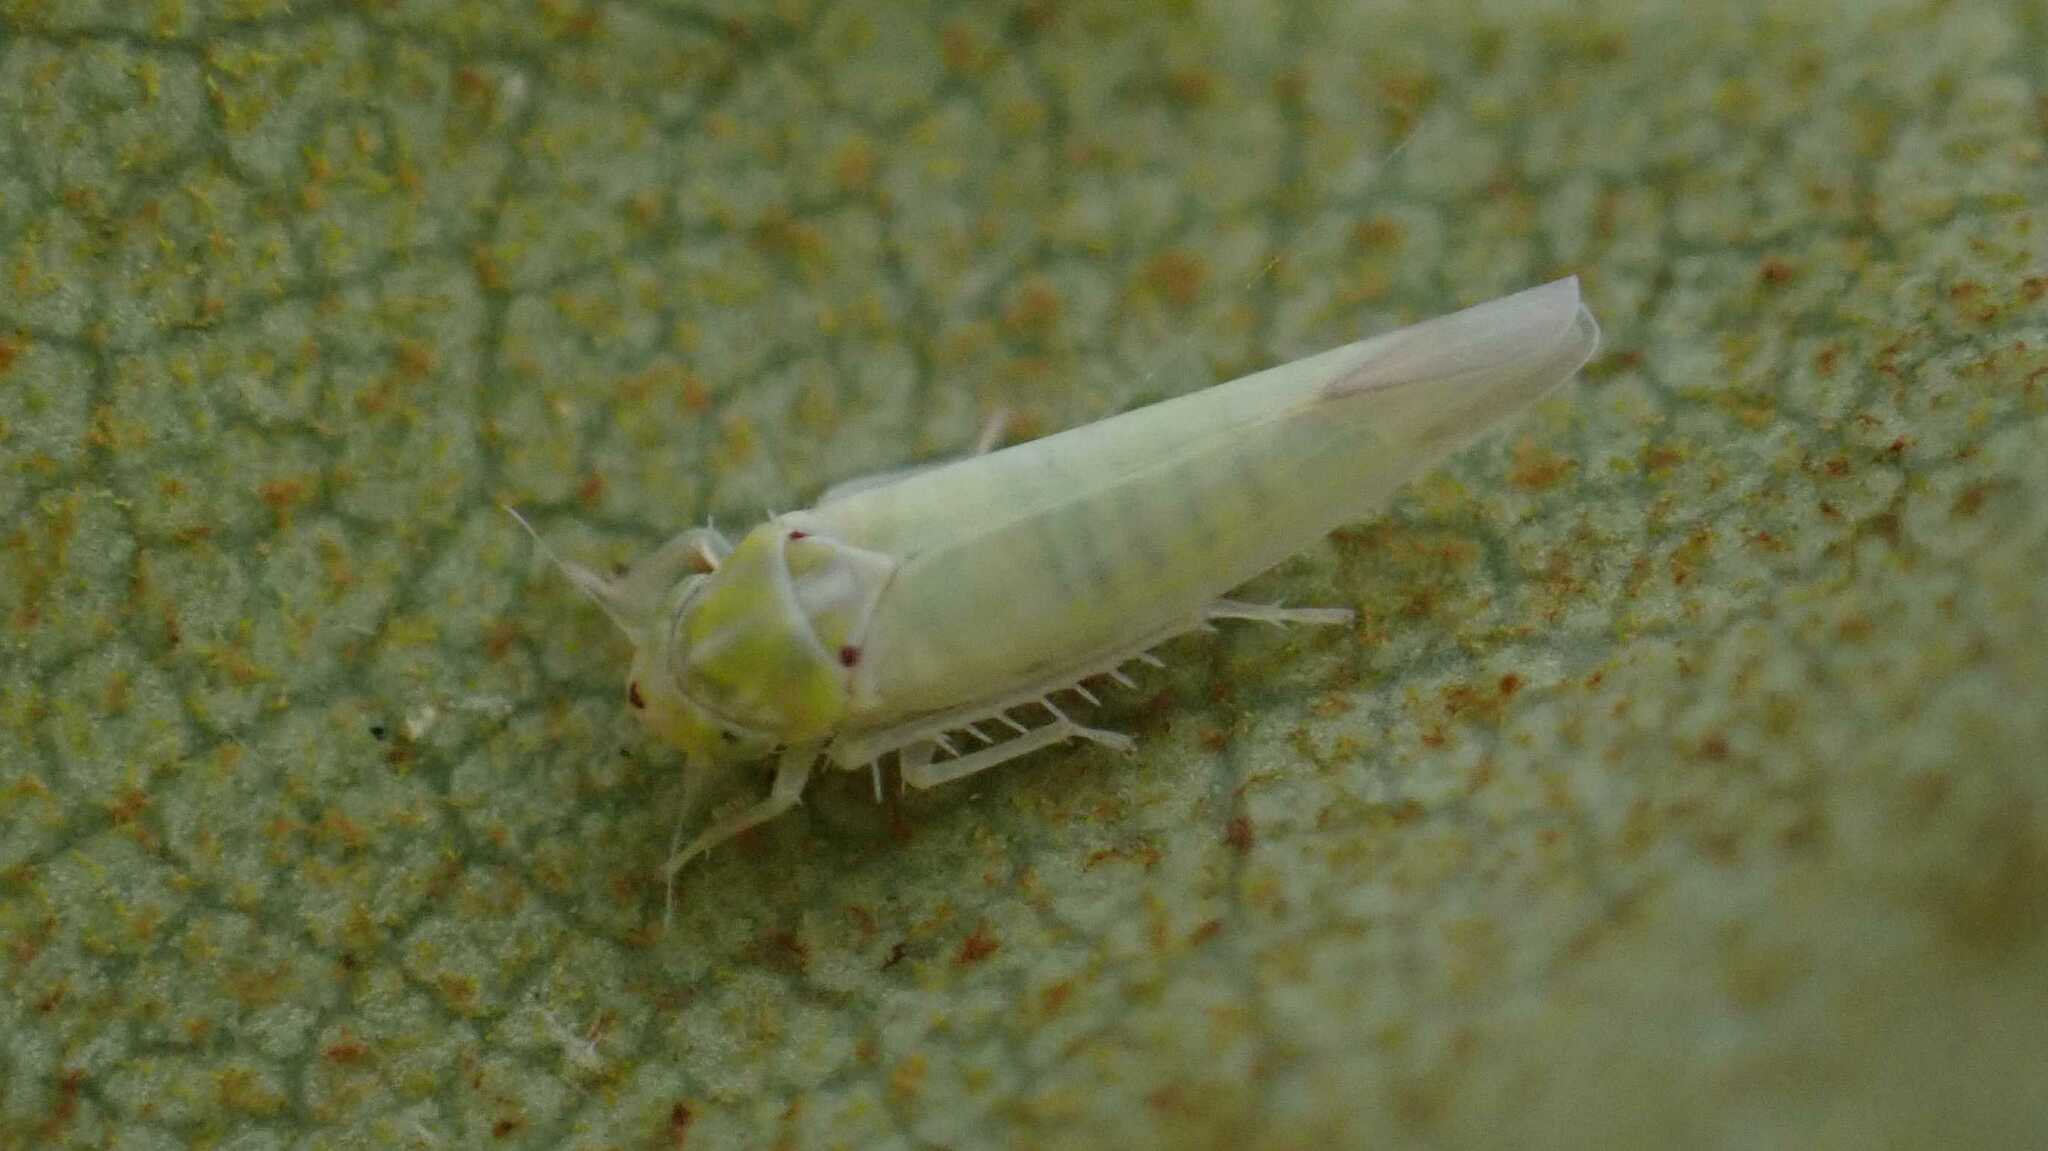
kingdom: Animalia
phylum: Arthropoda
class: Insecta
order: Hemiptera
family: Cicadellidae
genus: Zygina
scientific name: Zygina nivea
